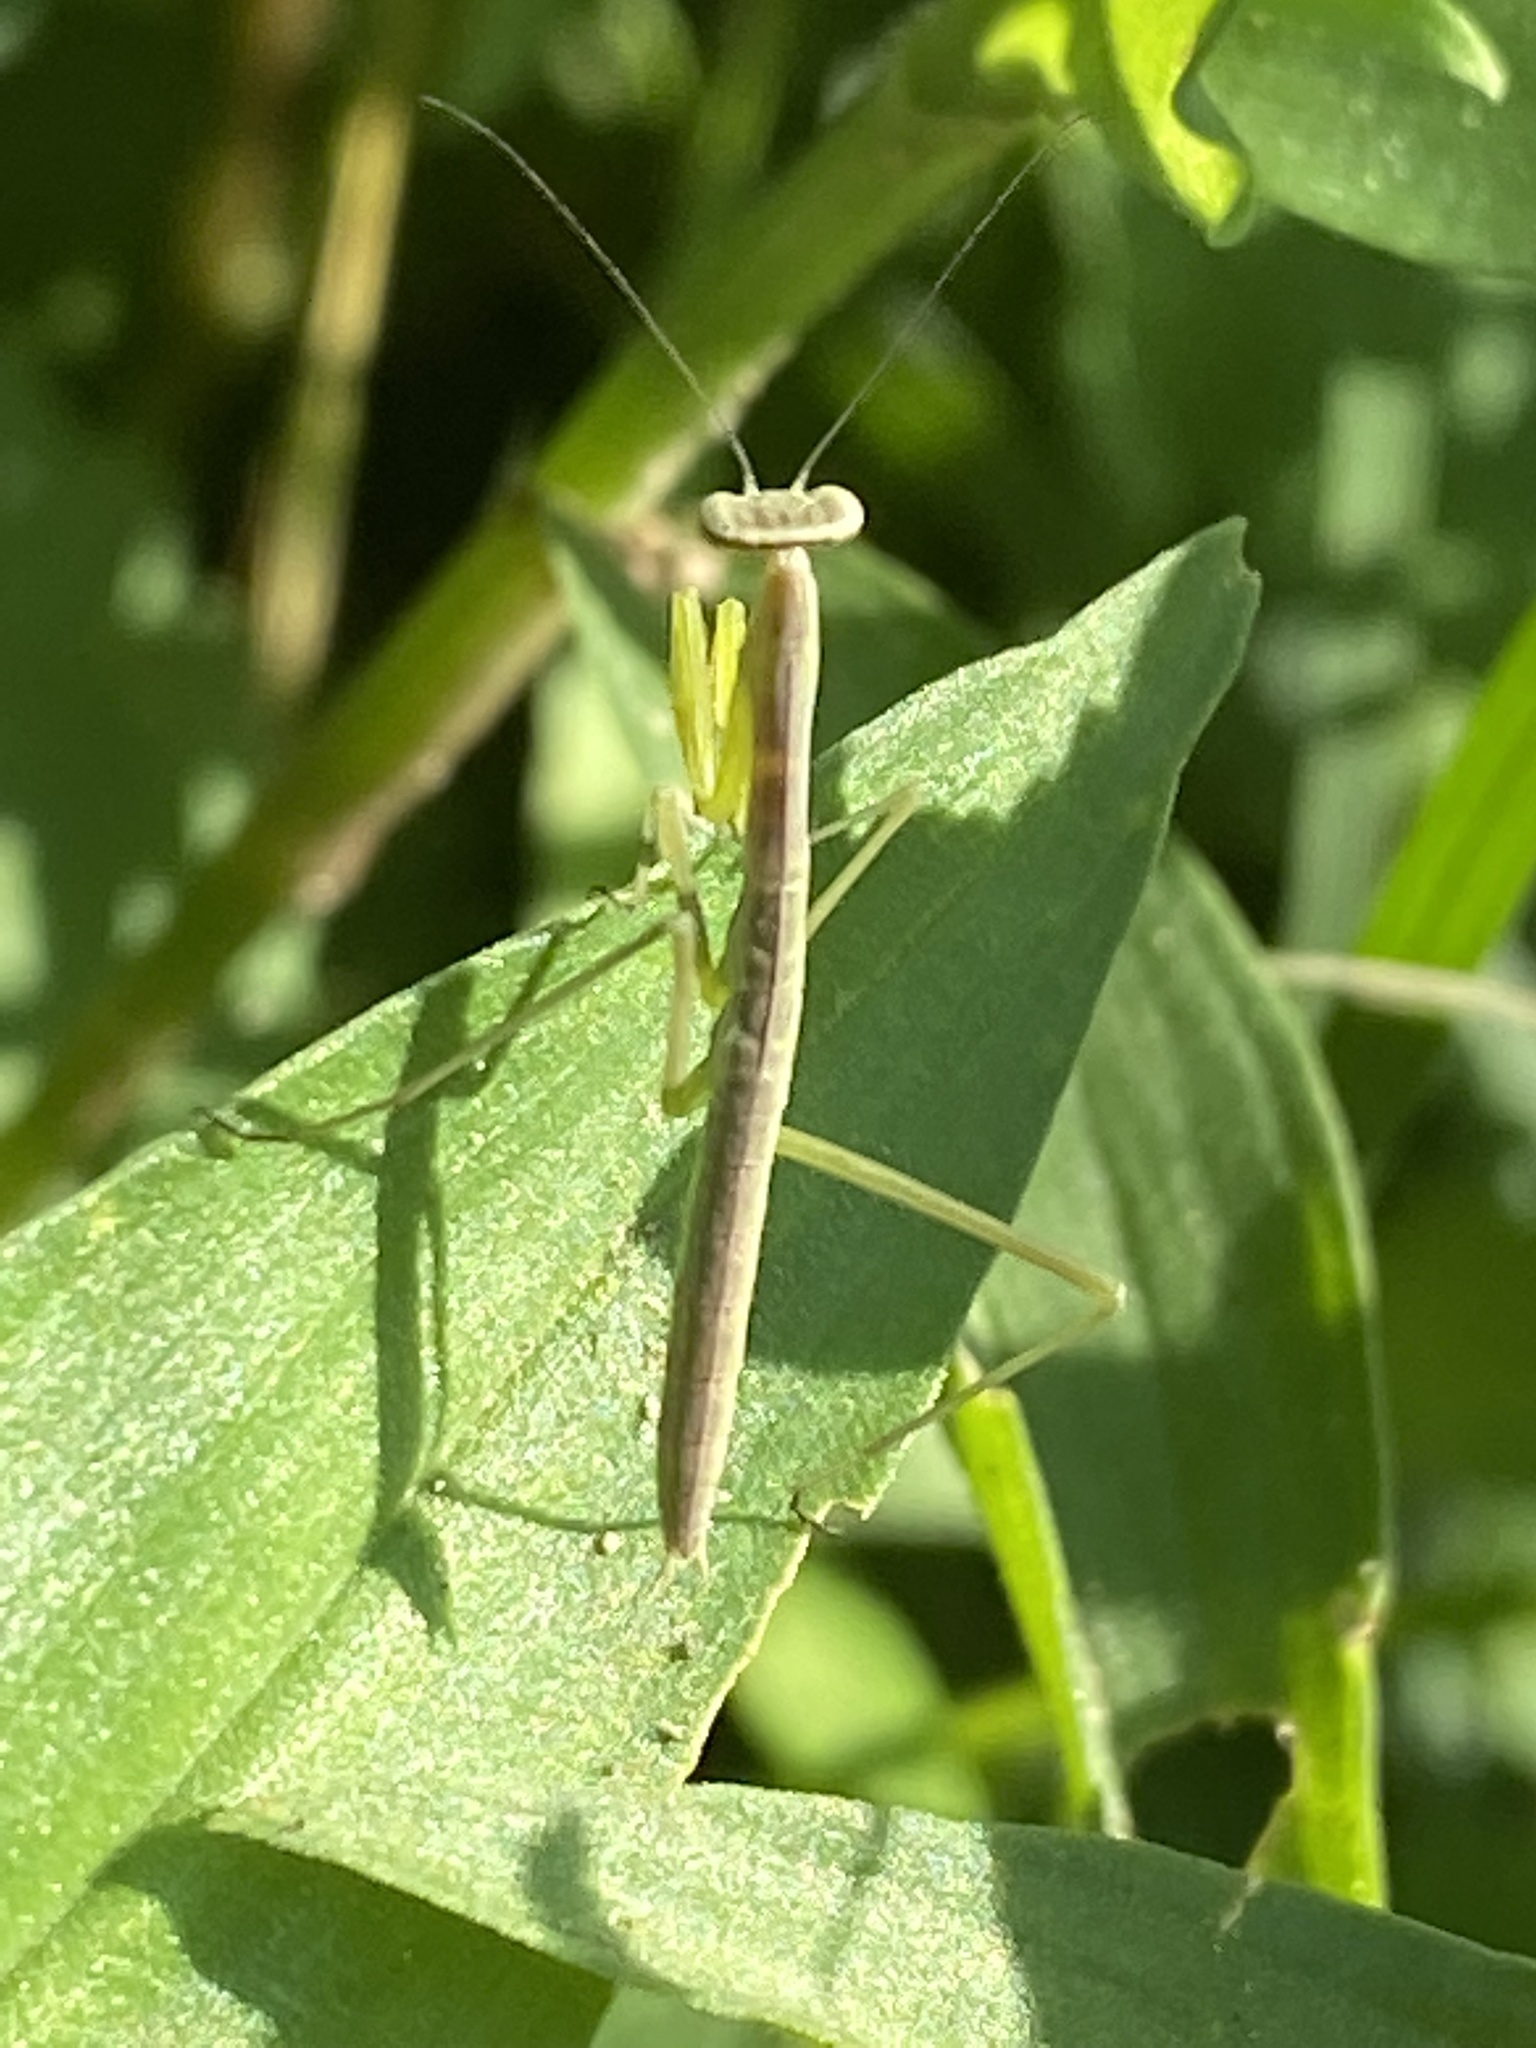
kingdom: Animalia
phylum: Arthropoda
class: Insecta
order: Mantodea
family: Mantidae
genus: Tenodera
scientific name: Tenodera sinensis
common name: Chinese mantis
